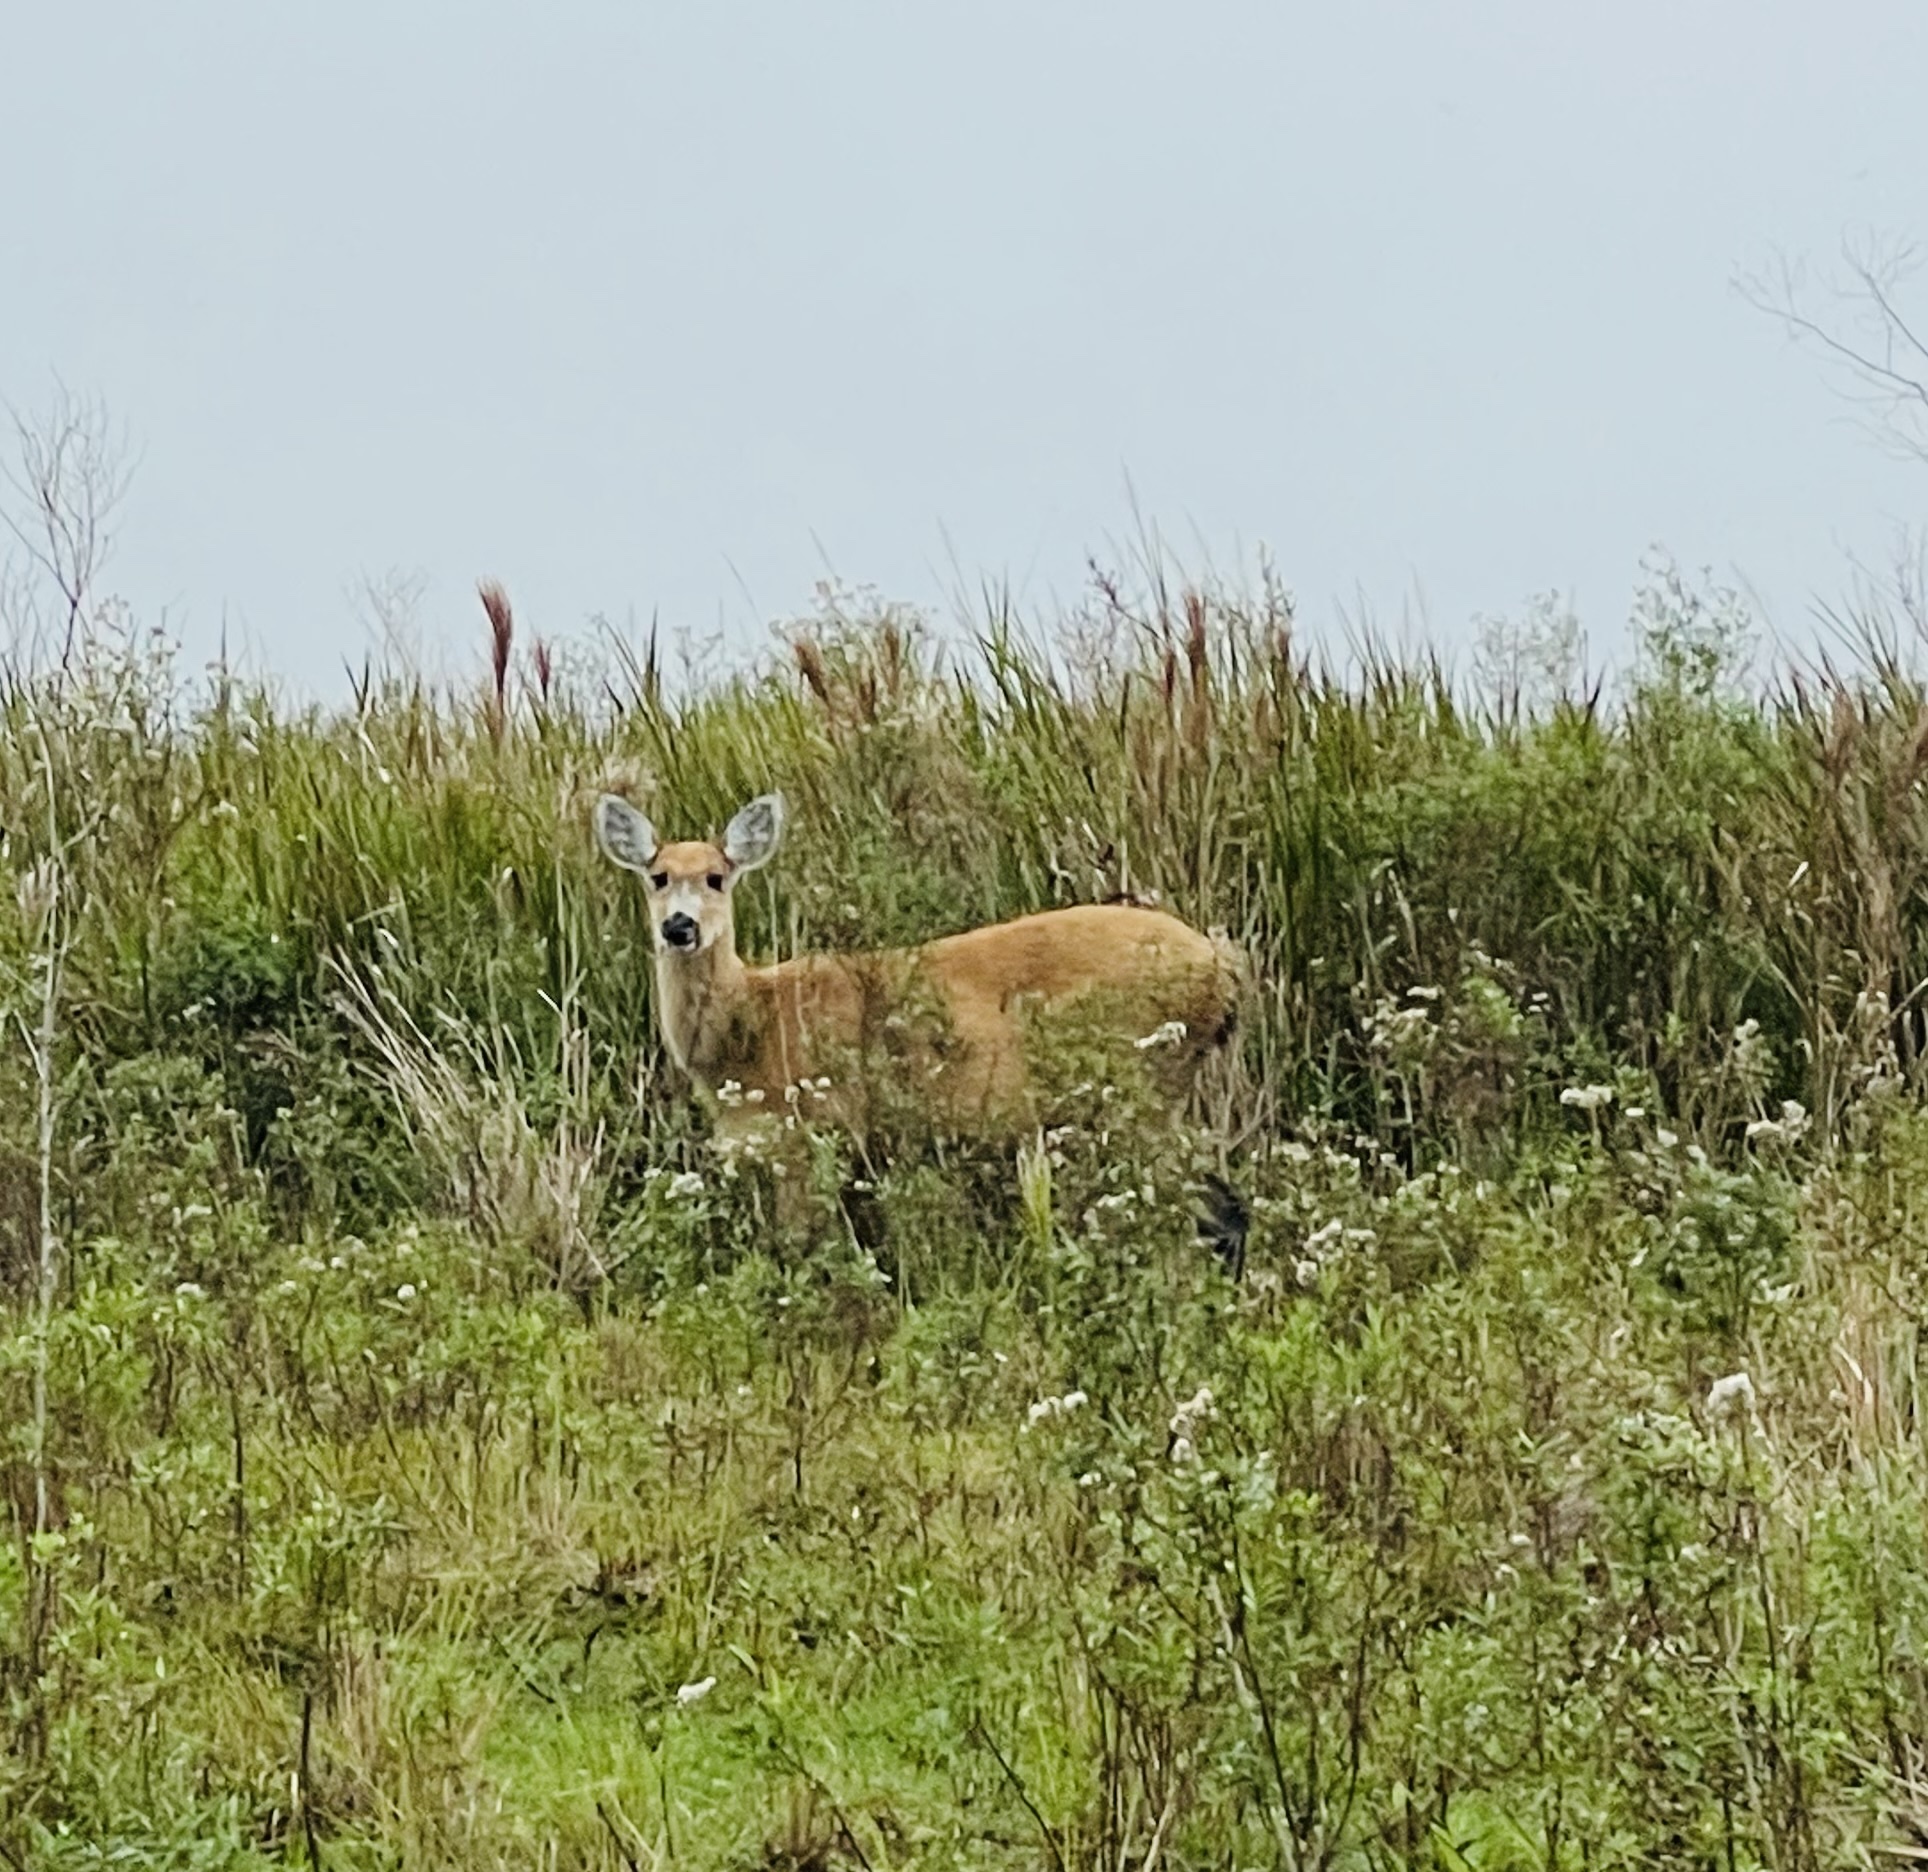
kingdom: Animalia
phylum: Chordata
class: Mammalia
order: Artiodactyla
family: Cervidae
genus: Blastocerus
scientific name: Blastocerus dichotomus
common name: Marsh deer
